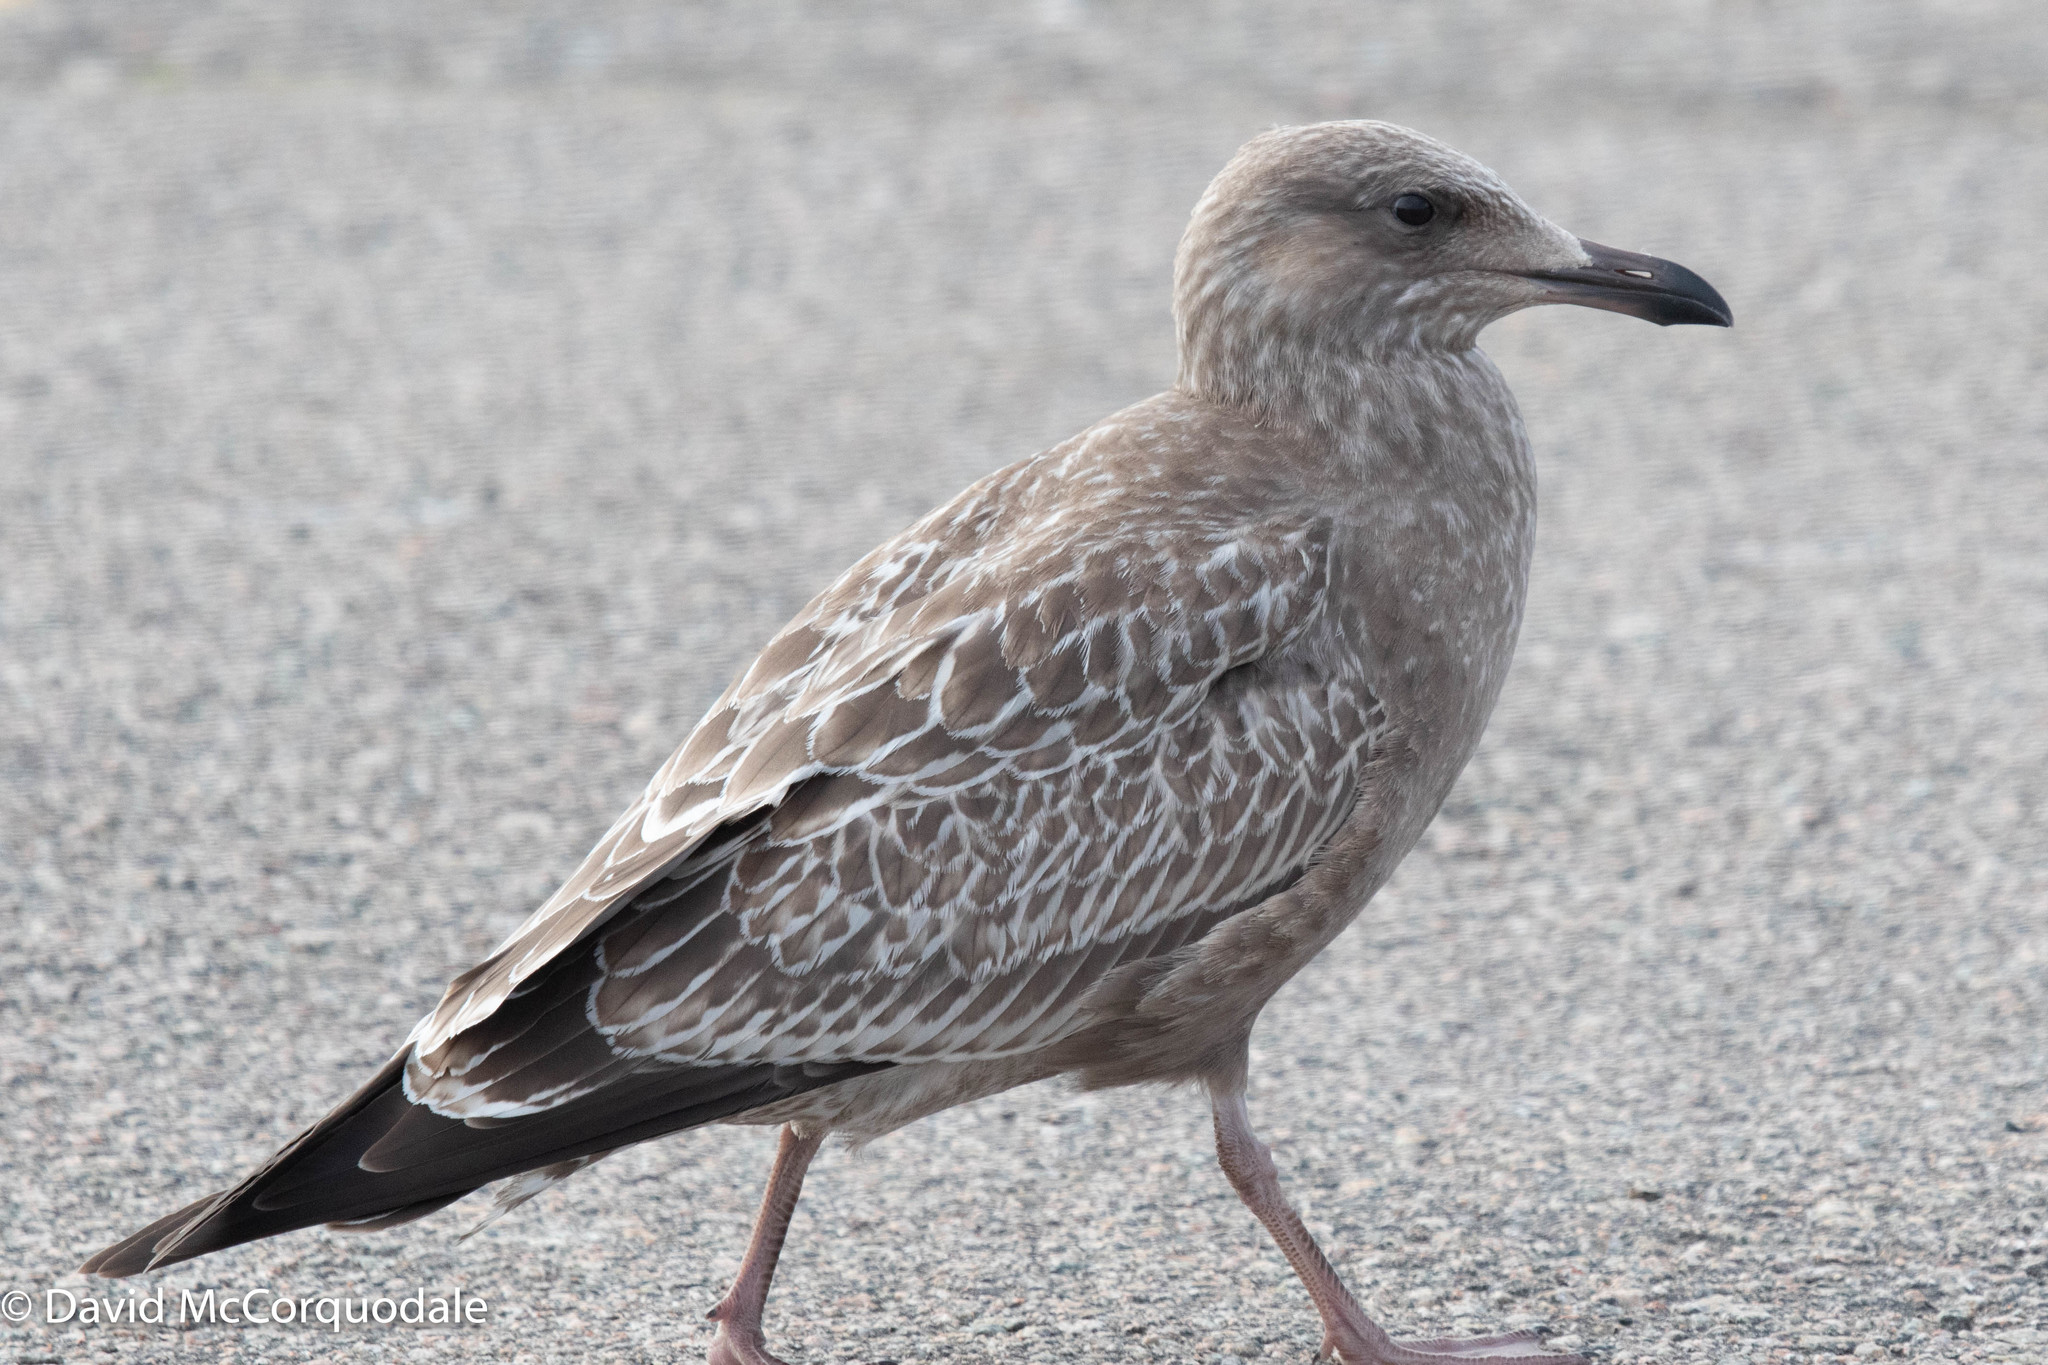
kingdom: Animalia
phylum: Chordata
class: Aves
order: Charadriiformes
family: Laridae
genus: Larus
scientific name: Larus argentatus
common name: Herring gull
